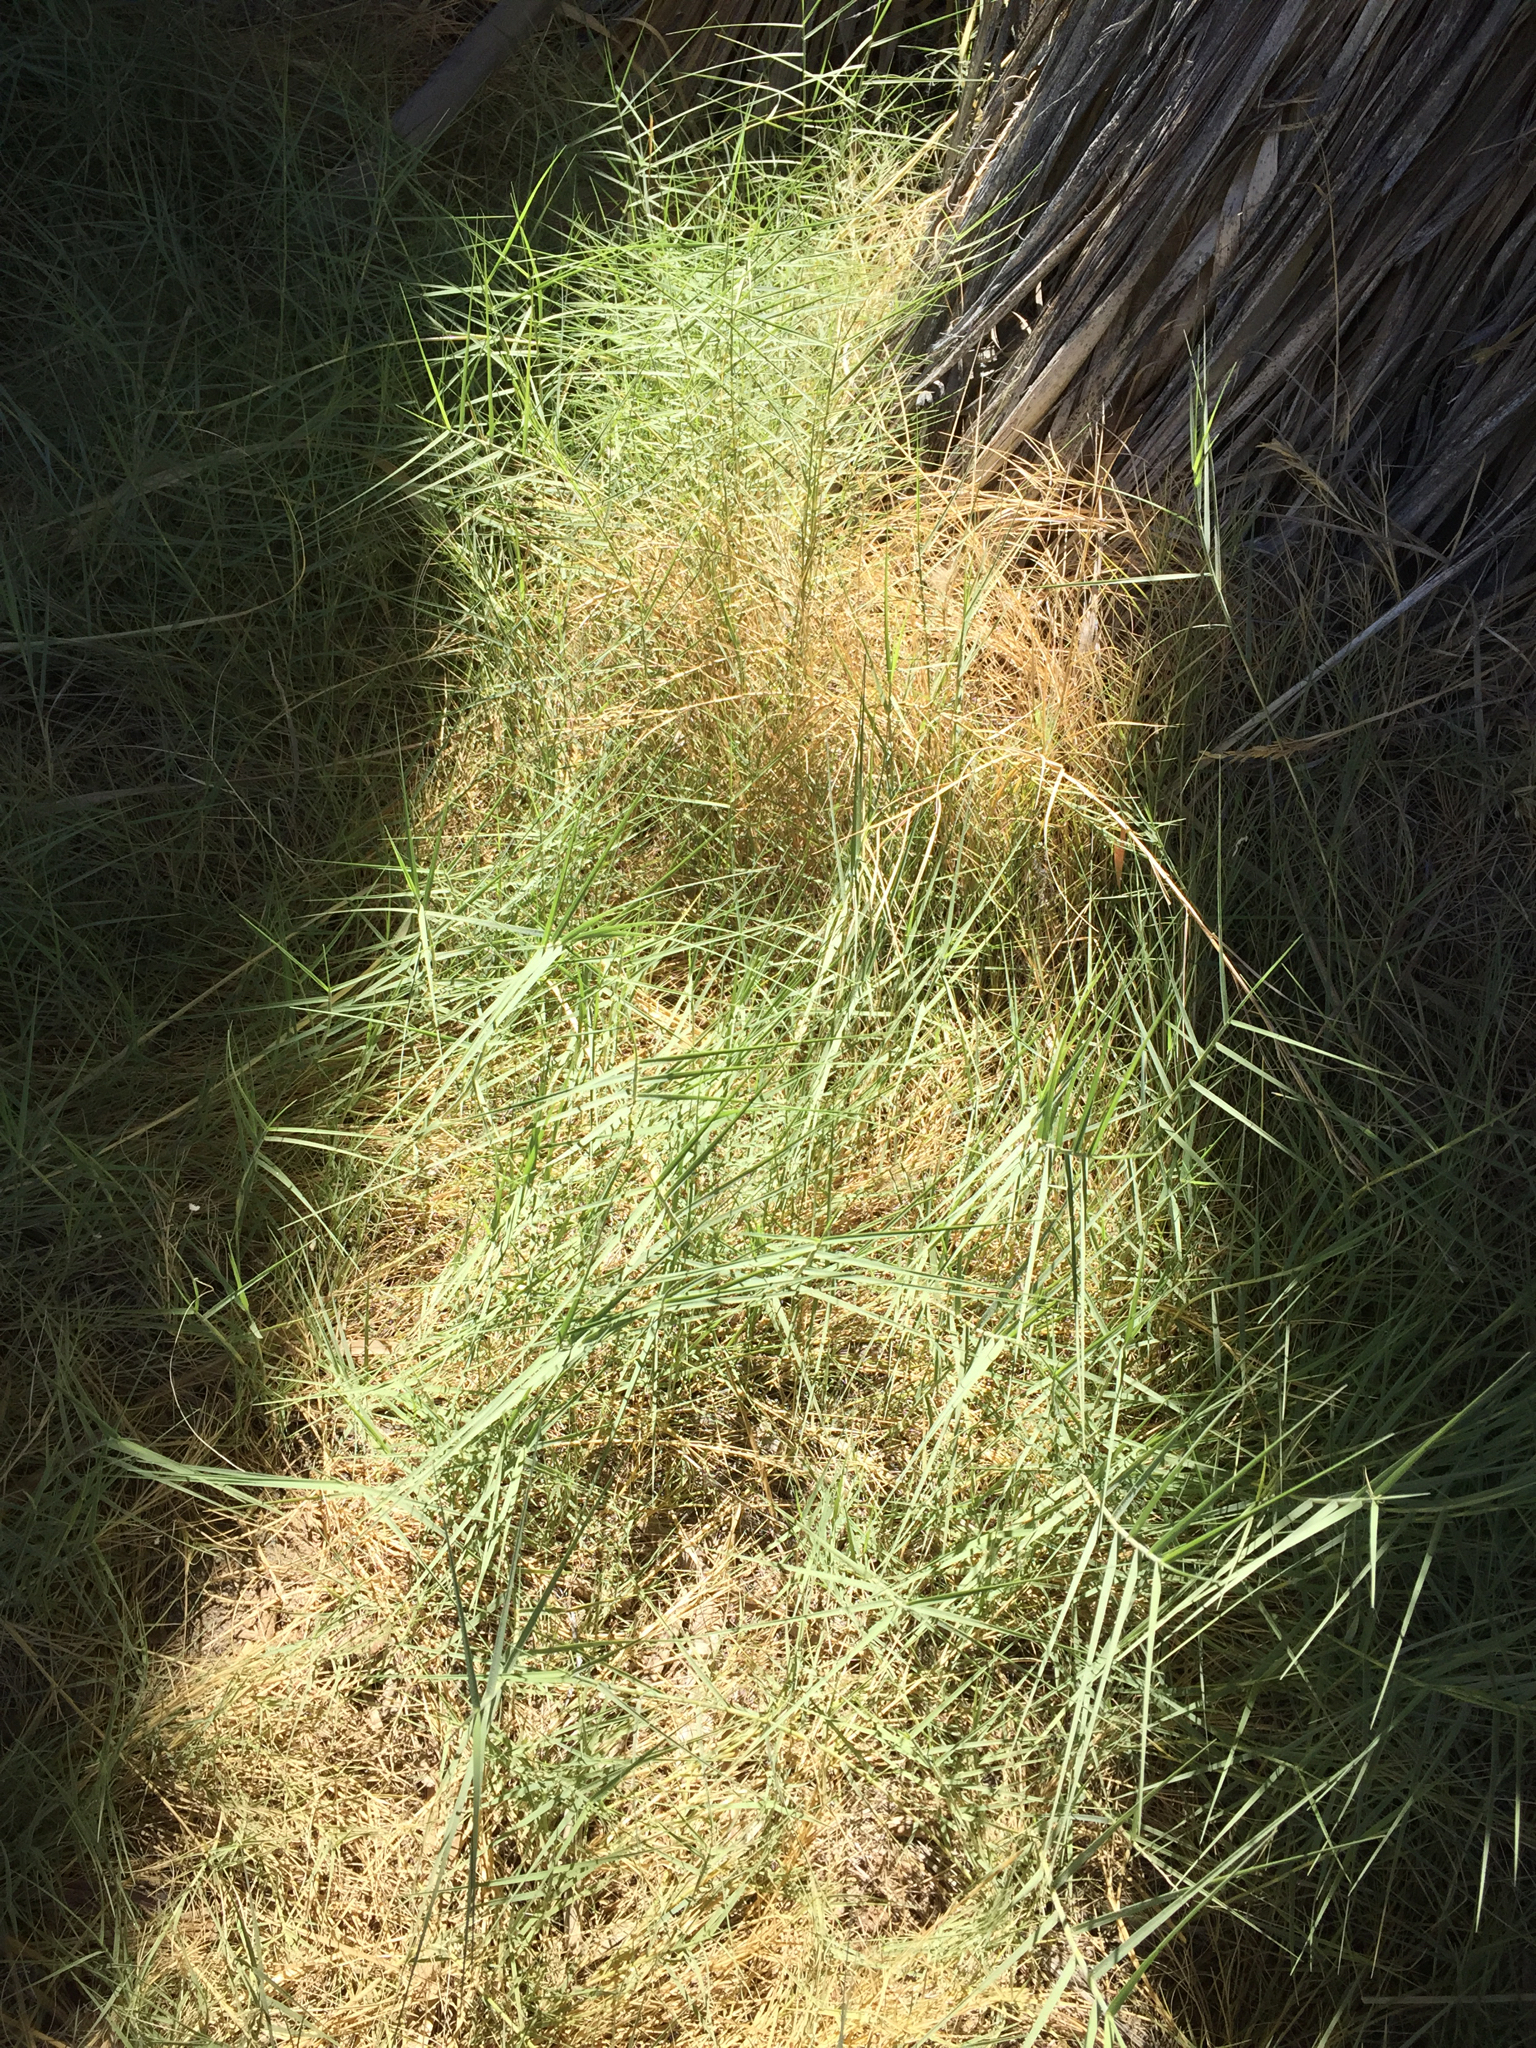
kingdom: Plantae
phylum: Tracheophyta
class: Liliopsida
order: Poales
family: Poaceae
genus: Distichlis
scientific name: Distichlis spicata
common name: Saltgrass
